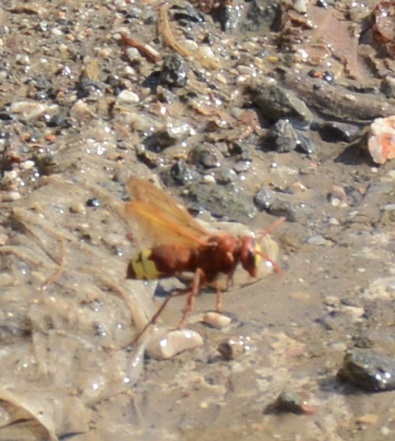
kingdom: Animalia
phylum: Arthropoda
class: Insecta
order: Hymenoptera
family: Vespidae
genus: Vespa
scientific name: Vespa orientalis
